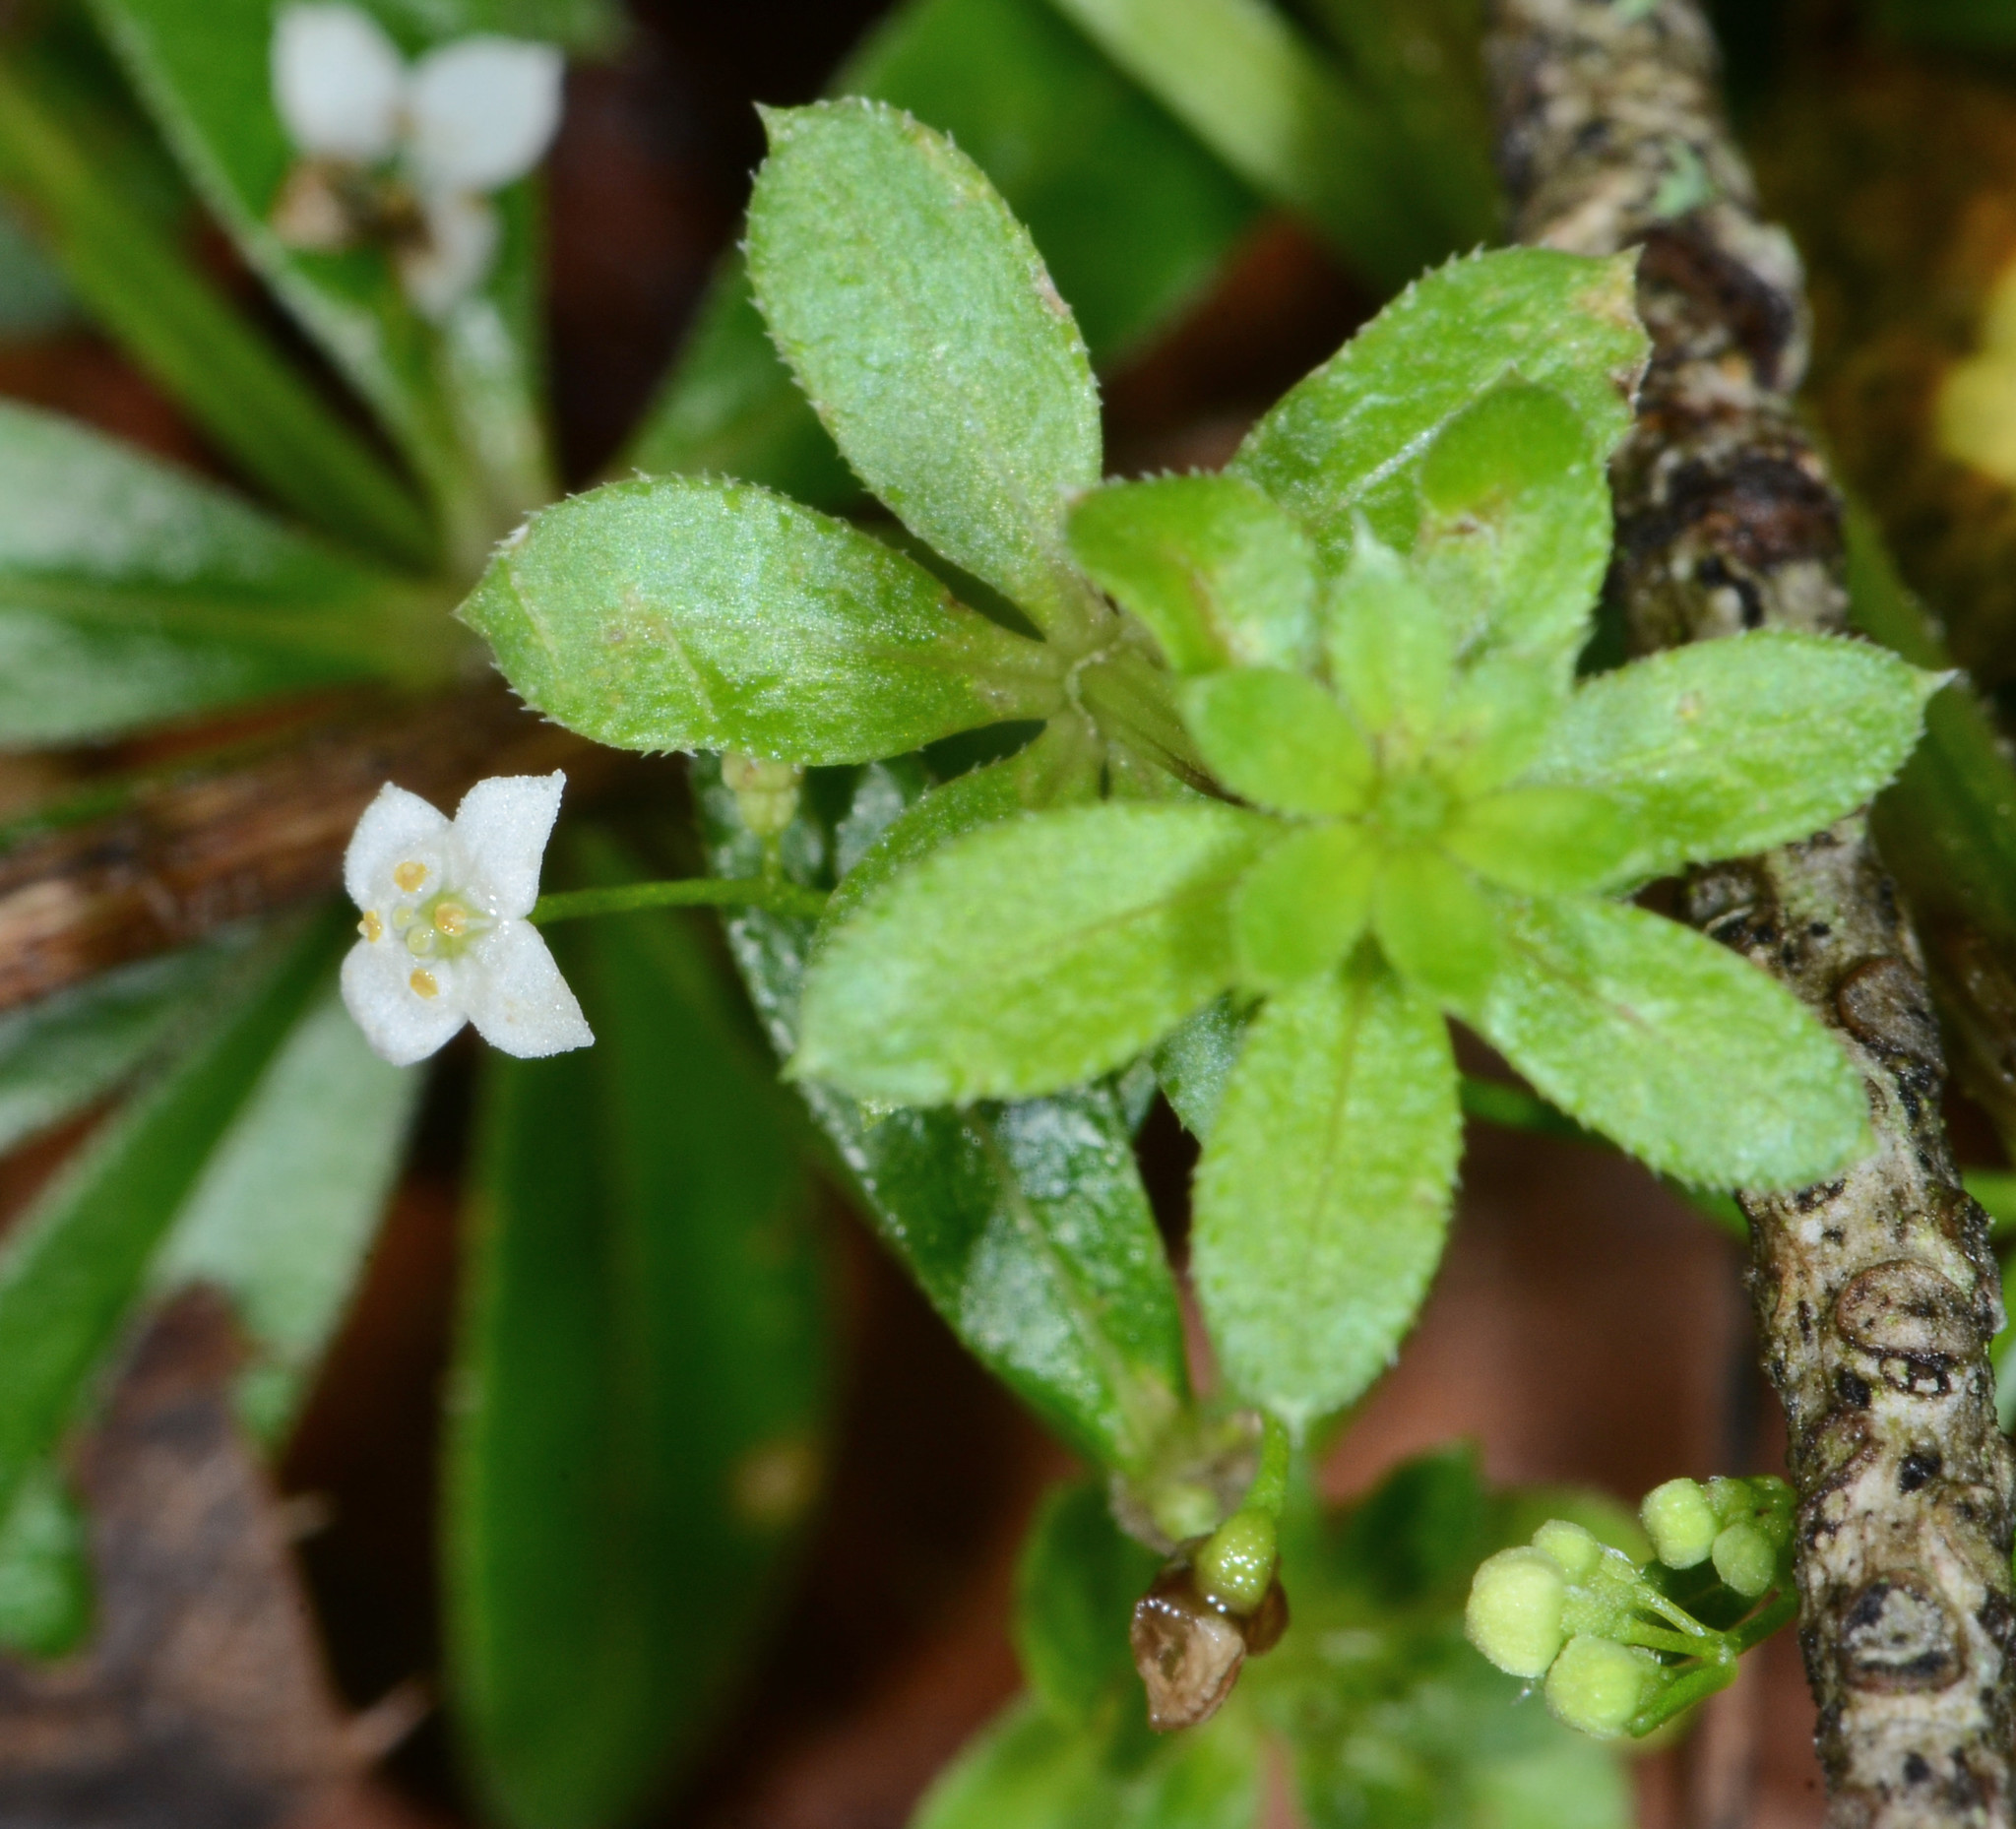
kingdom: Plantae
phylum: Tracheophyta
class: Magnoliopsida
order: Gentianales
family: Rubiaceae
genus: Galium
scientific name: Galium mexicanum
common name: Mexican bedstraw
